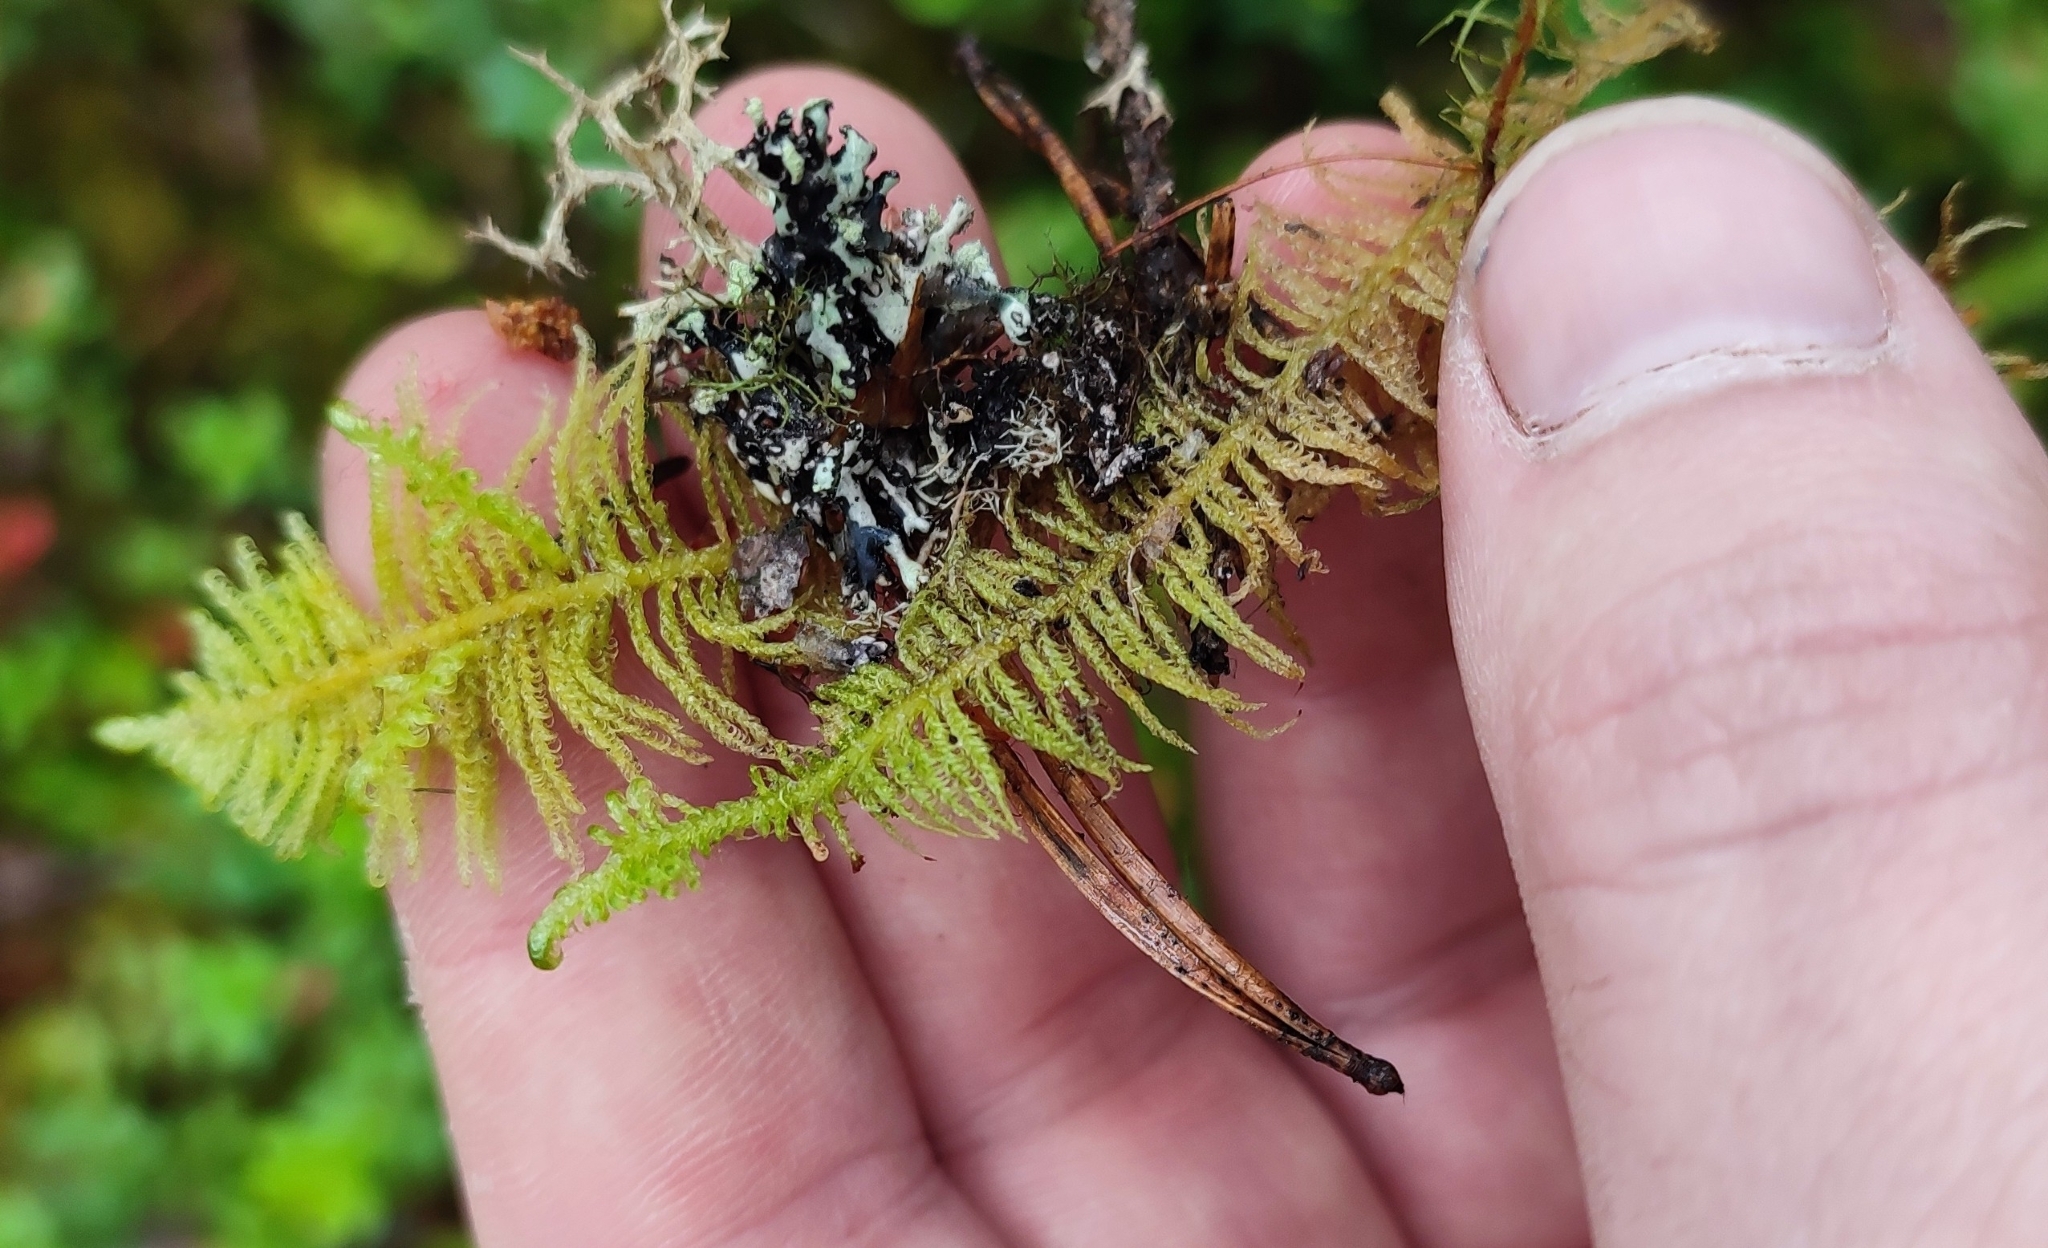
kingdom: Plantae
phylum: Bryophyta
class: Bryopsida
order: Hypnales
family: Pylaisiaceae
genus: Ptilium
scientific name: Ptilium crista-castrensis
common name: Knight's plume moss
